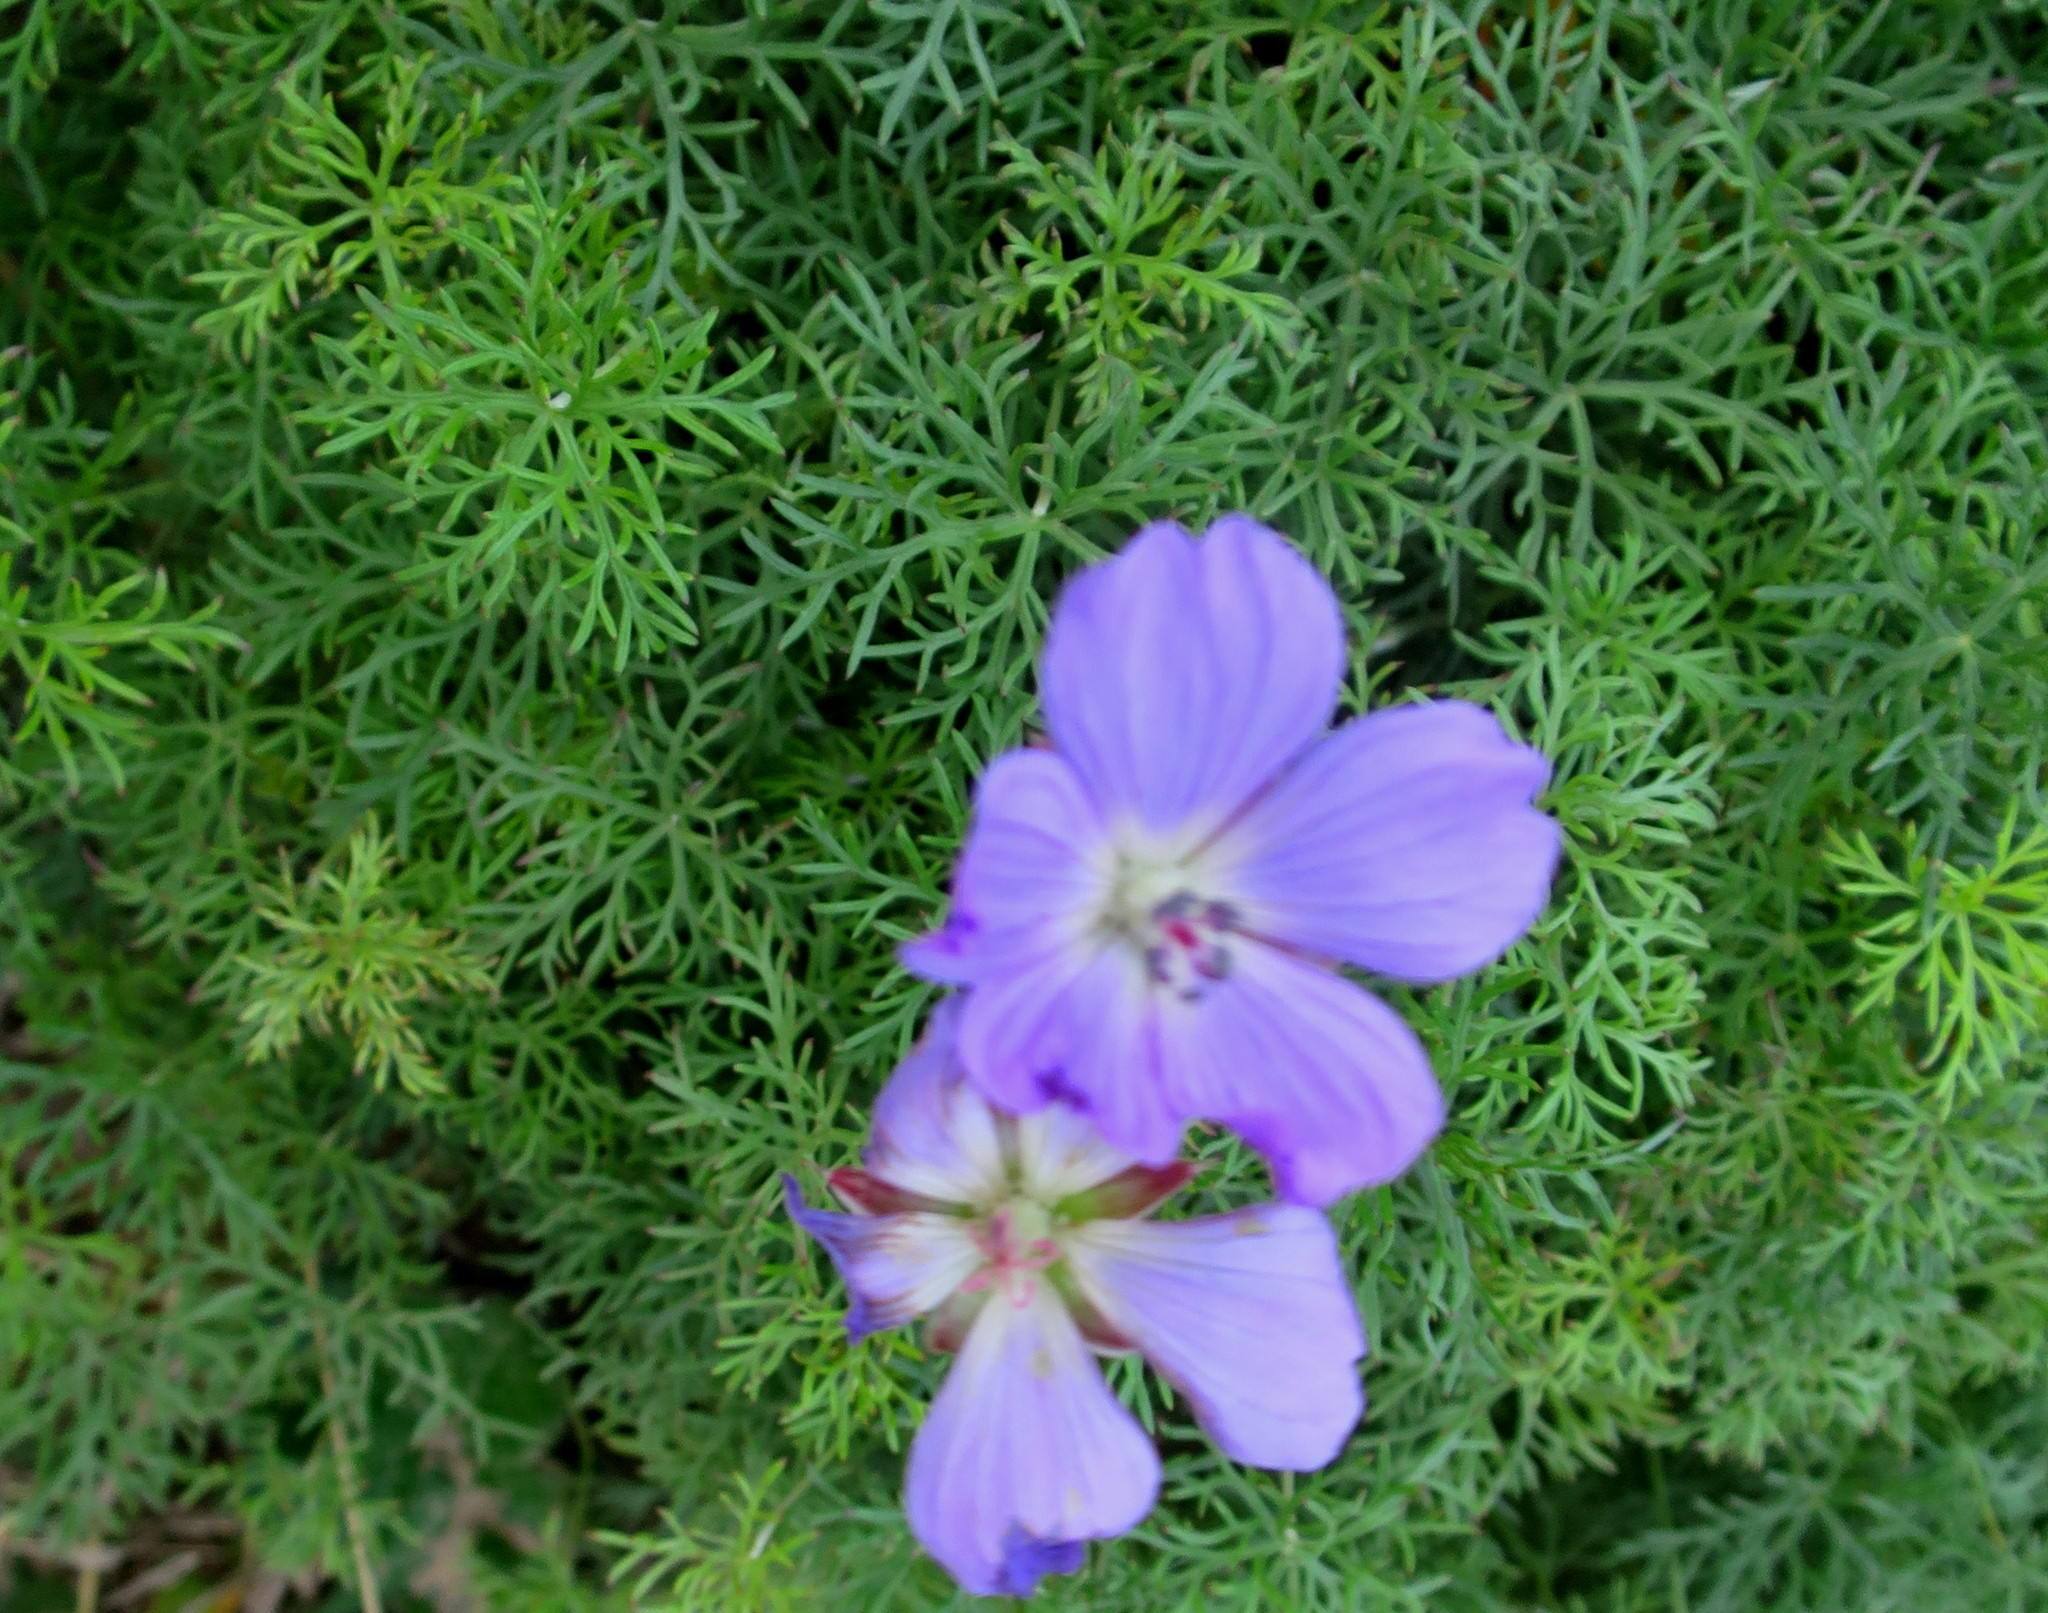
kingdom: Plantae
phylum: Tracheophyta
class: Magnoliopsida
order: Geraniales
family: Geraniaceae
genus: Geranium
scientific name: Geranium incanum
